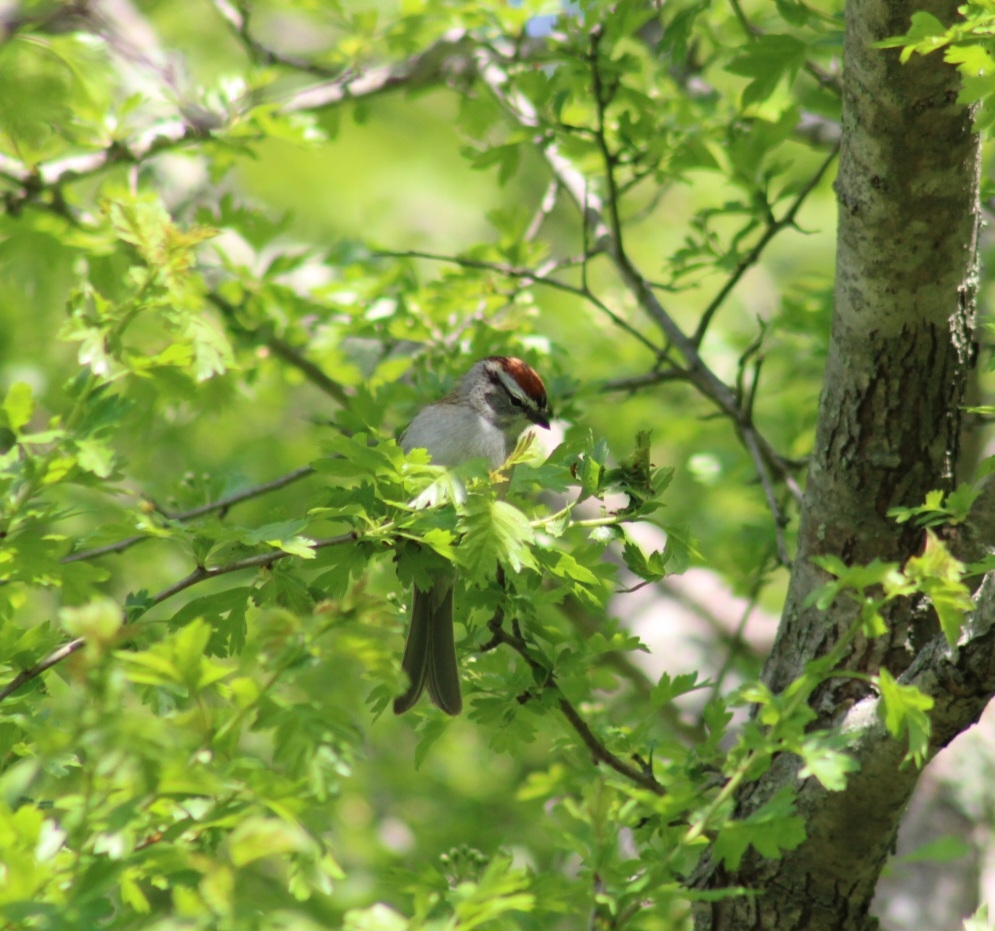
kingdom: Animalia
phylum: Chordata
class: Aves
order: Passeriformes
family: Passerellidae
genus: Spizella
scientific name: Spizella passerina
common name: Chipping sparrow
